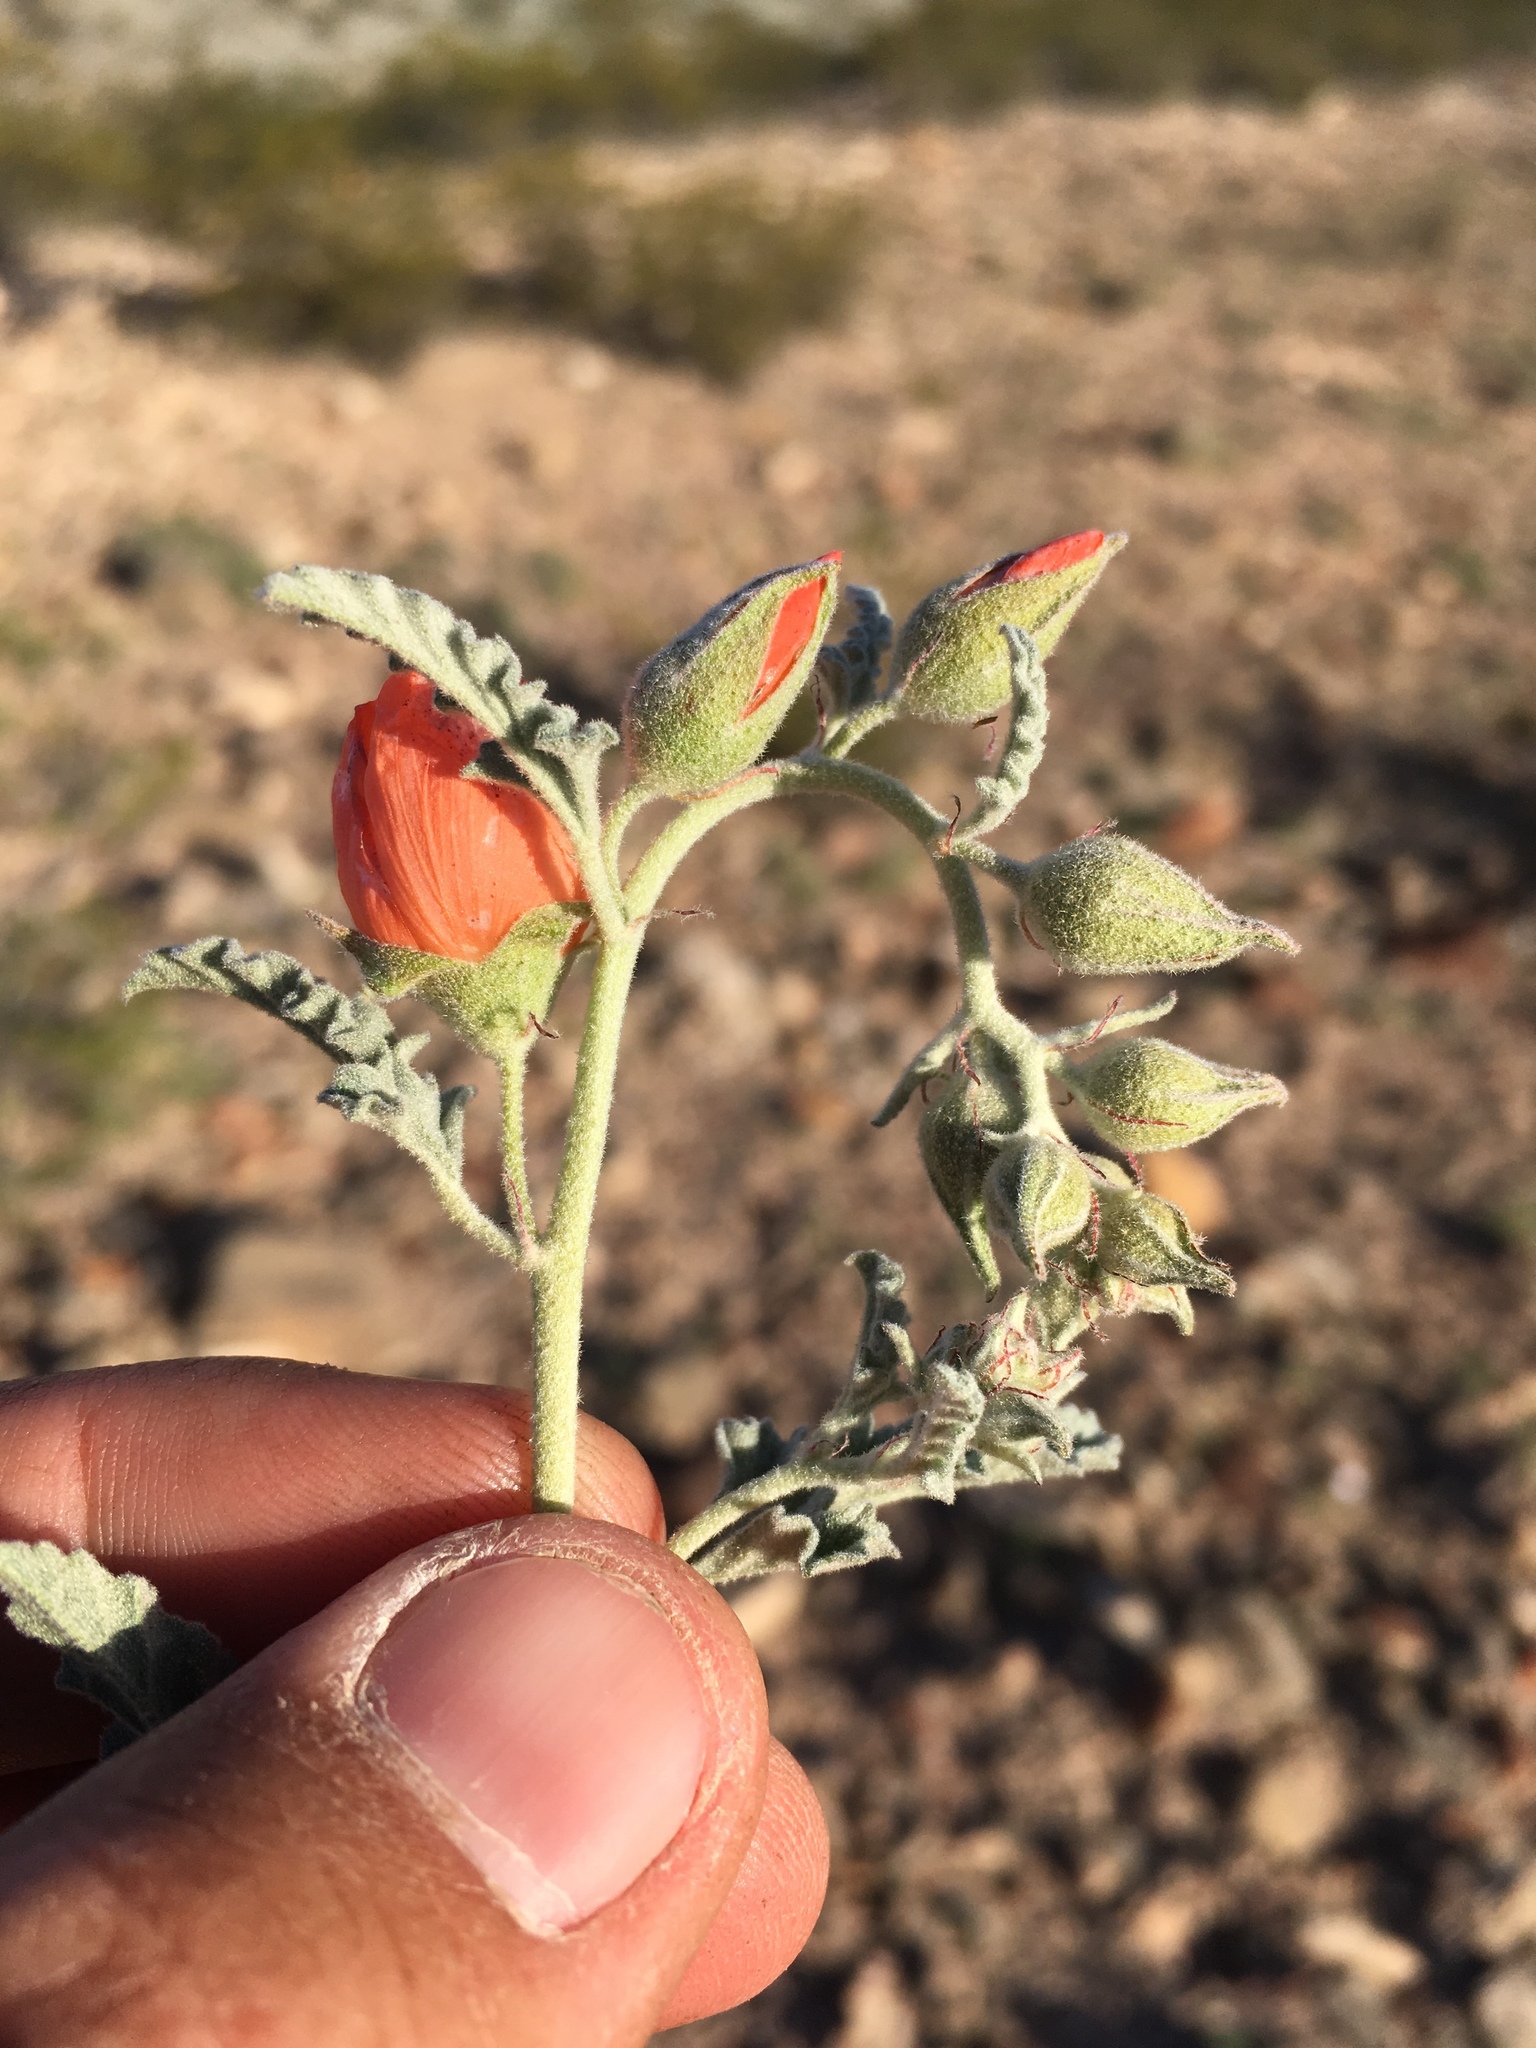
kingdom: Plantae
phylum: Tracheophyta
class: Magnoliopsida
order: Malvales
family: Malvaceae
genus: Sphaeralcea
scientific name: Sphaeralcea hastulata
